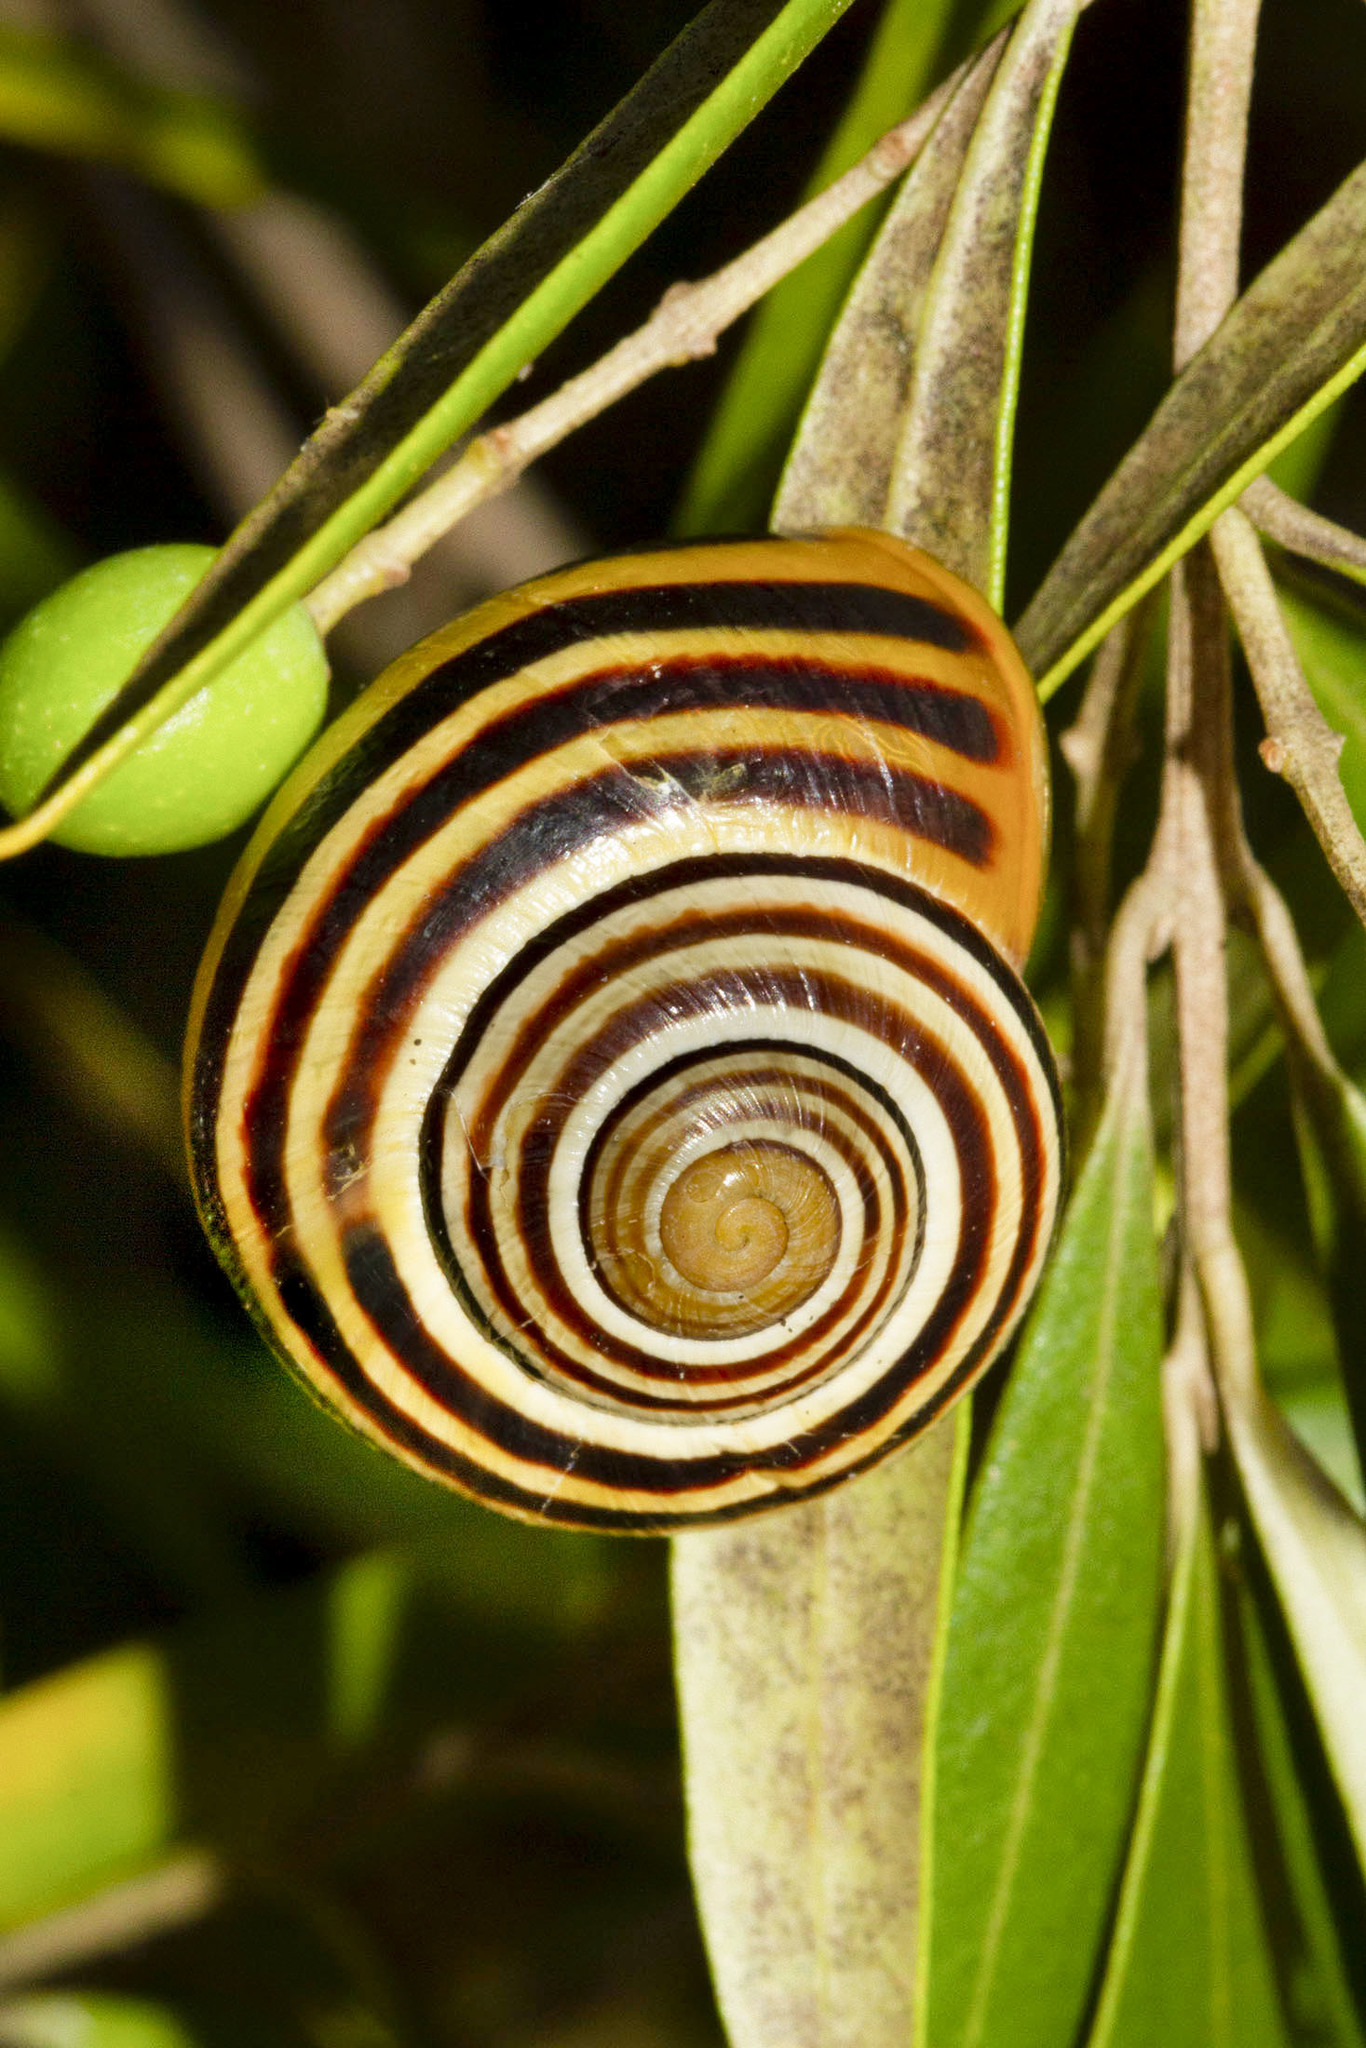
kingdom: Animalia
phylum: Mollusca
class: Gastropoda
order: Stylommatophora
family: Helicidae
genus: Cepaea
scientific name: Cepaea nemoralis
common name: Grovesnail
